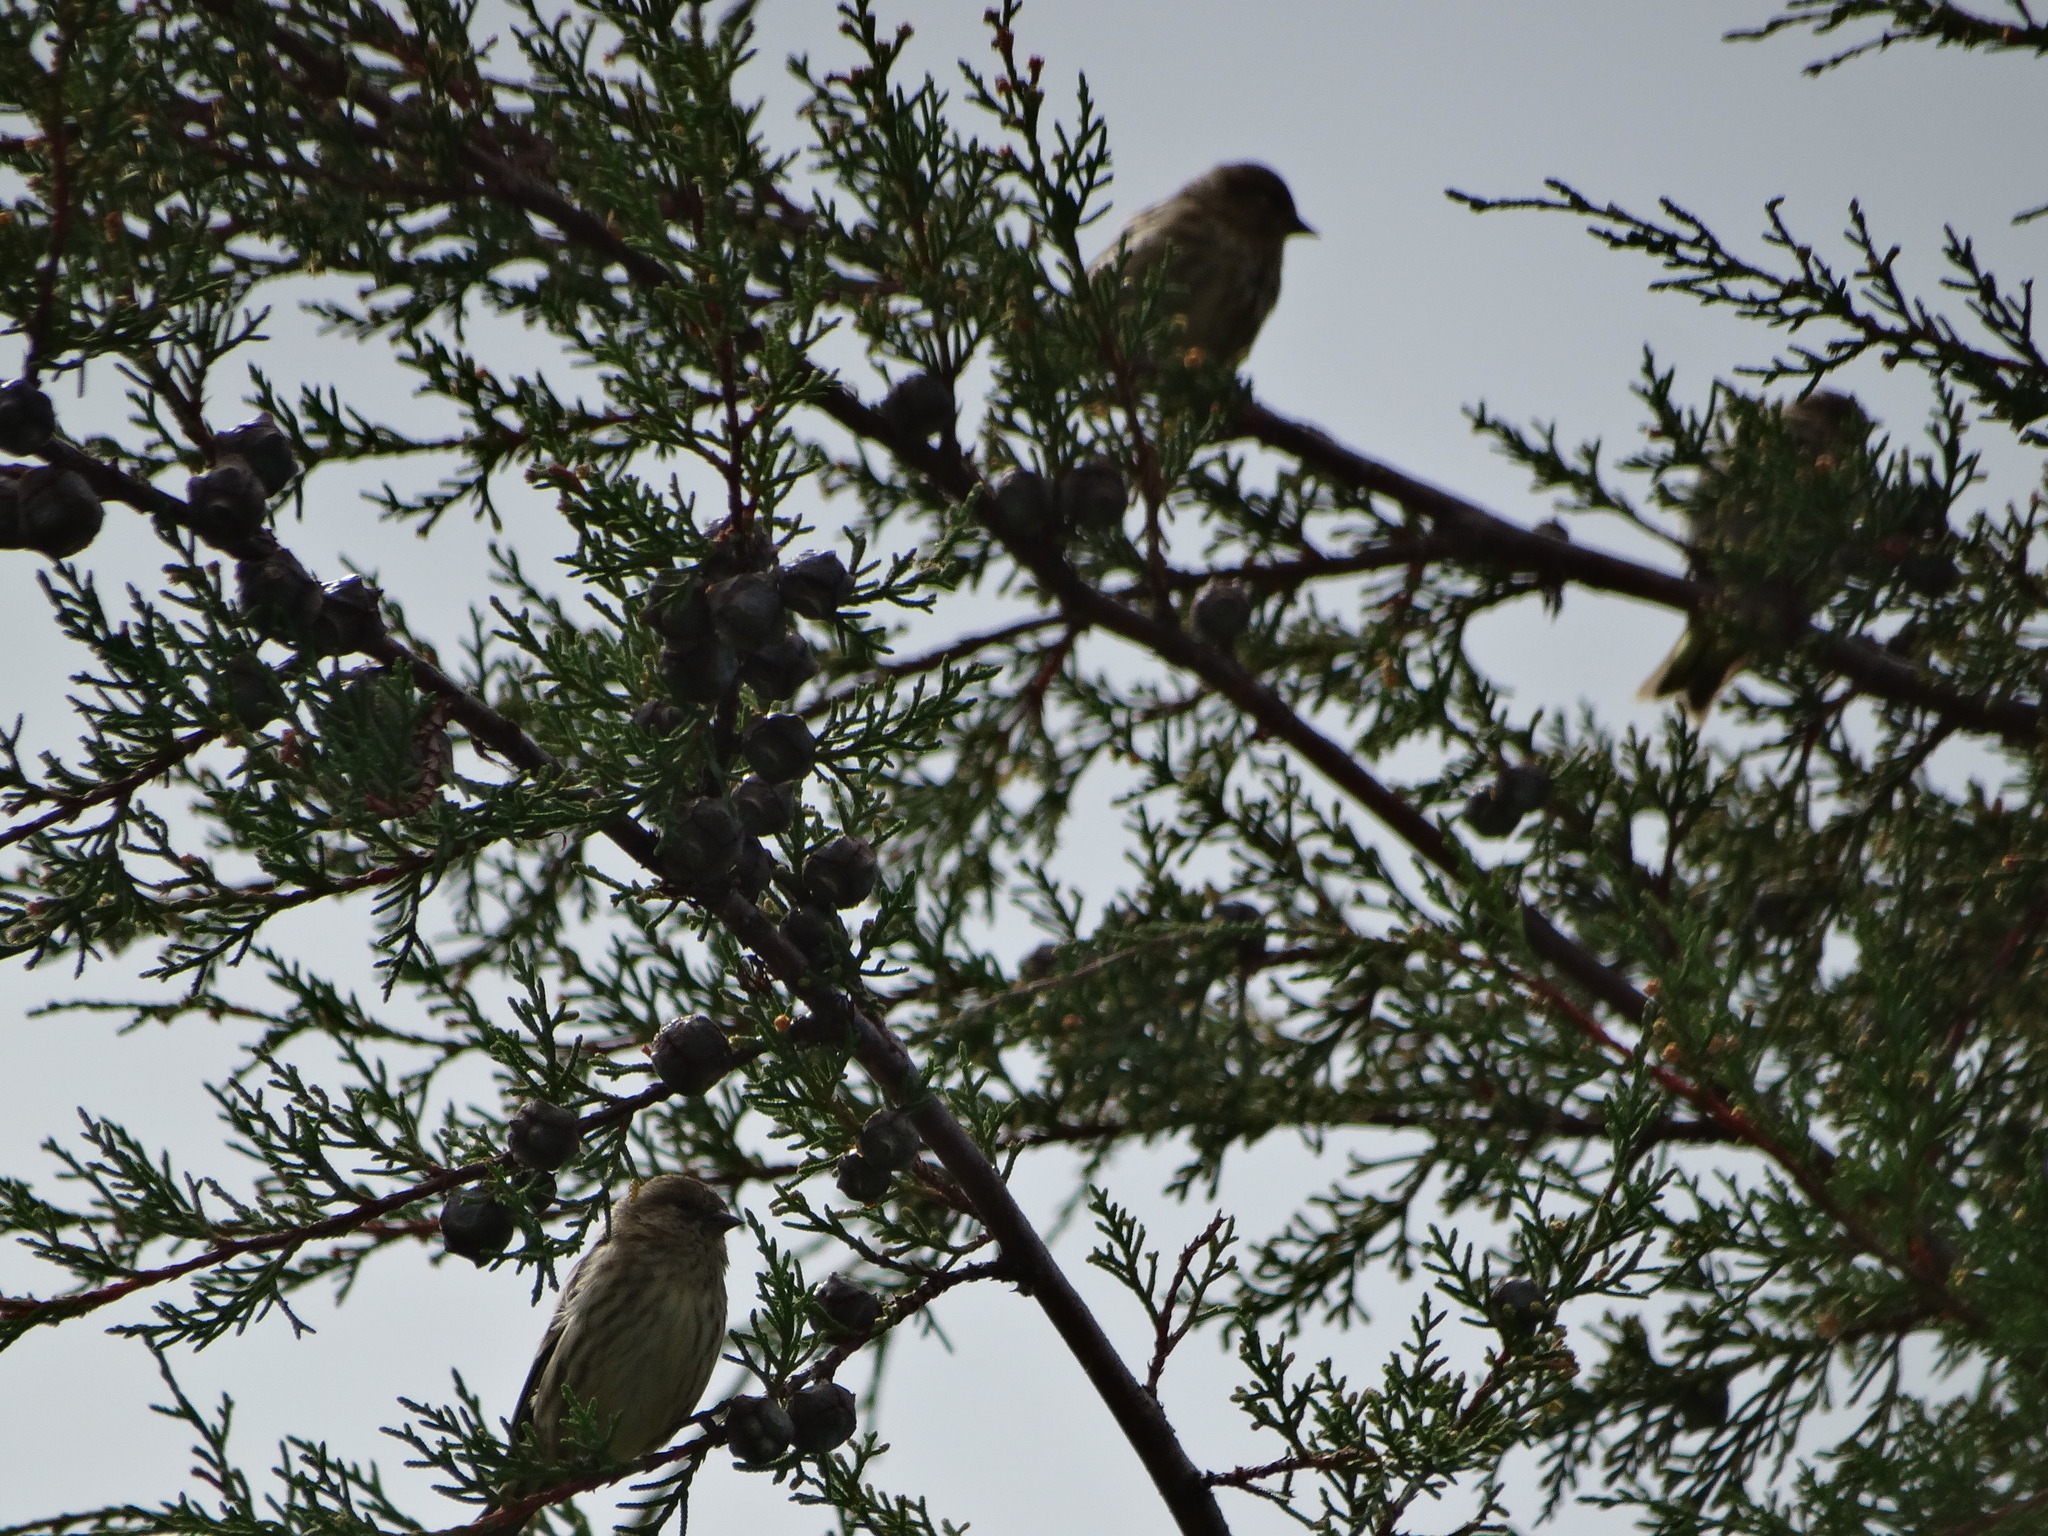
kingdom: Animalia
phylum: Chordata
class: Aves
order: Passeriformes
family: Fringillidae
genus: Spinus
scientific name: Spinus pinus
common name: Pine siskin
